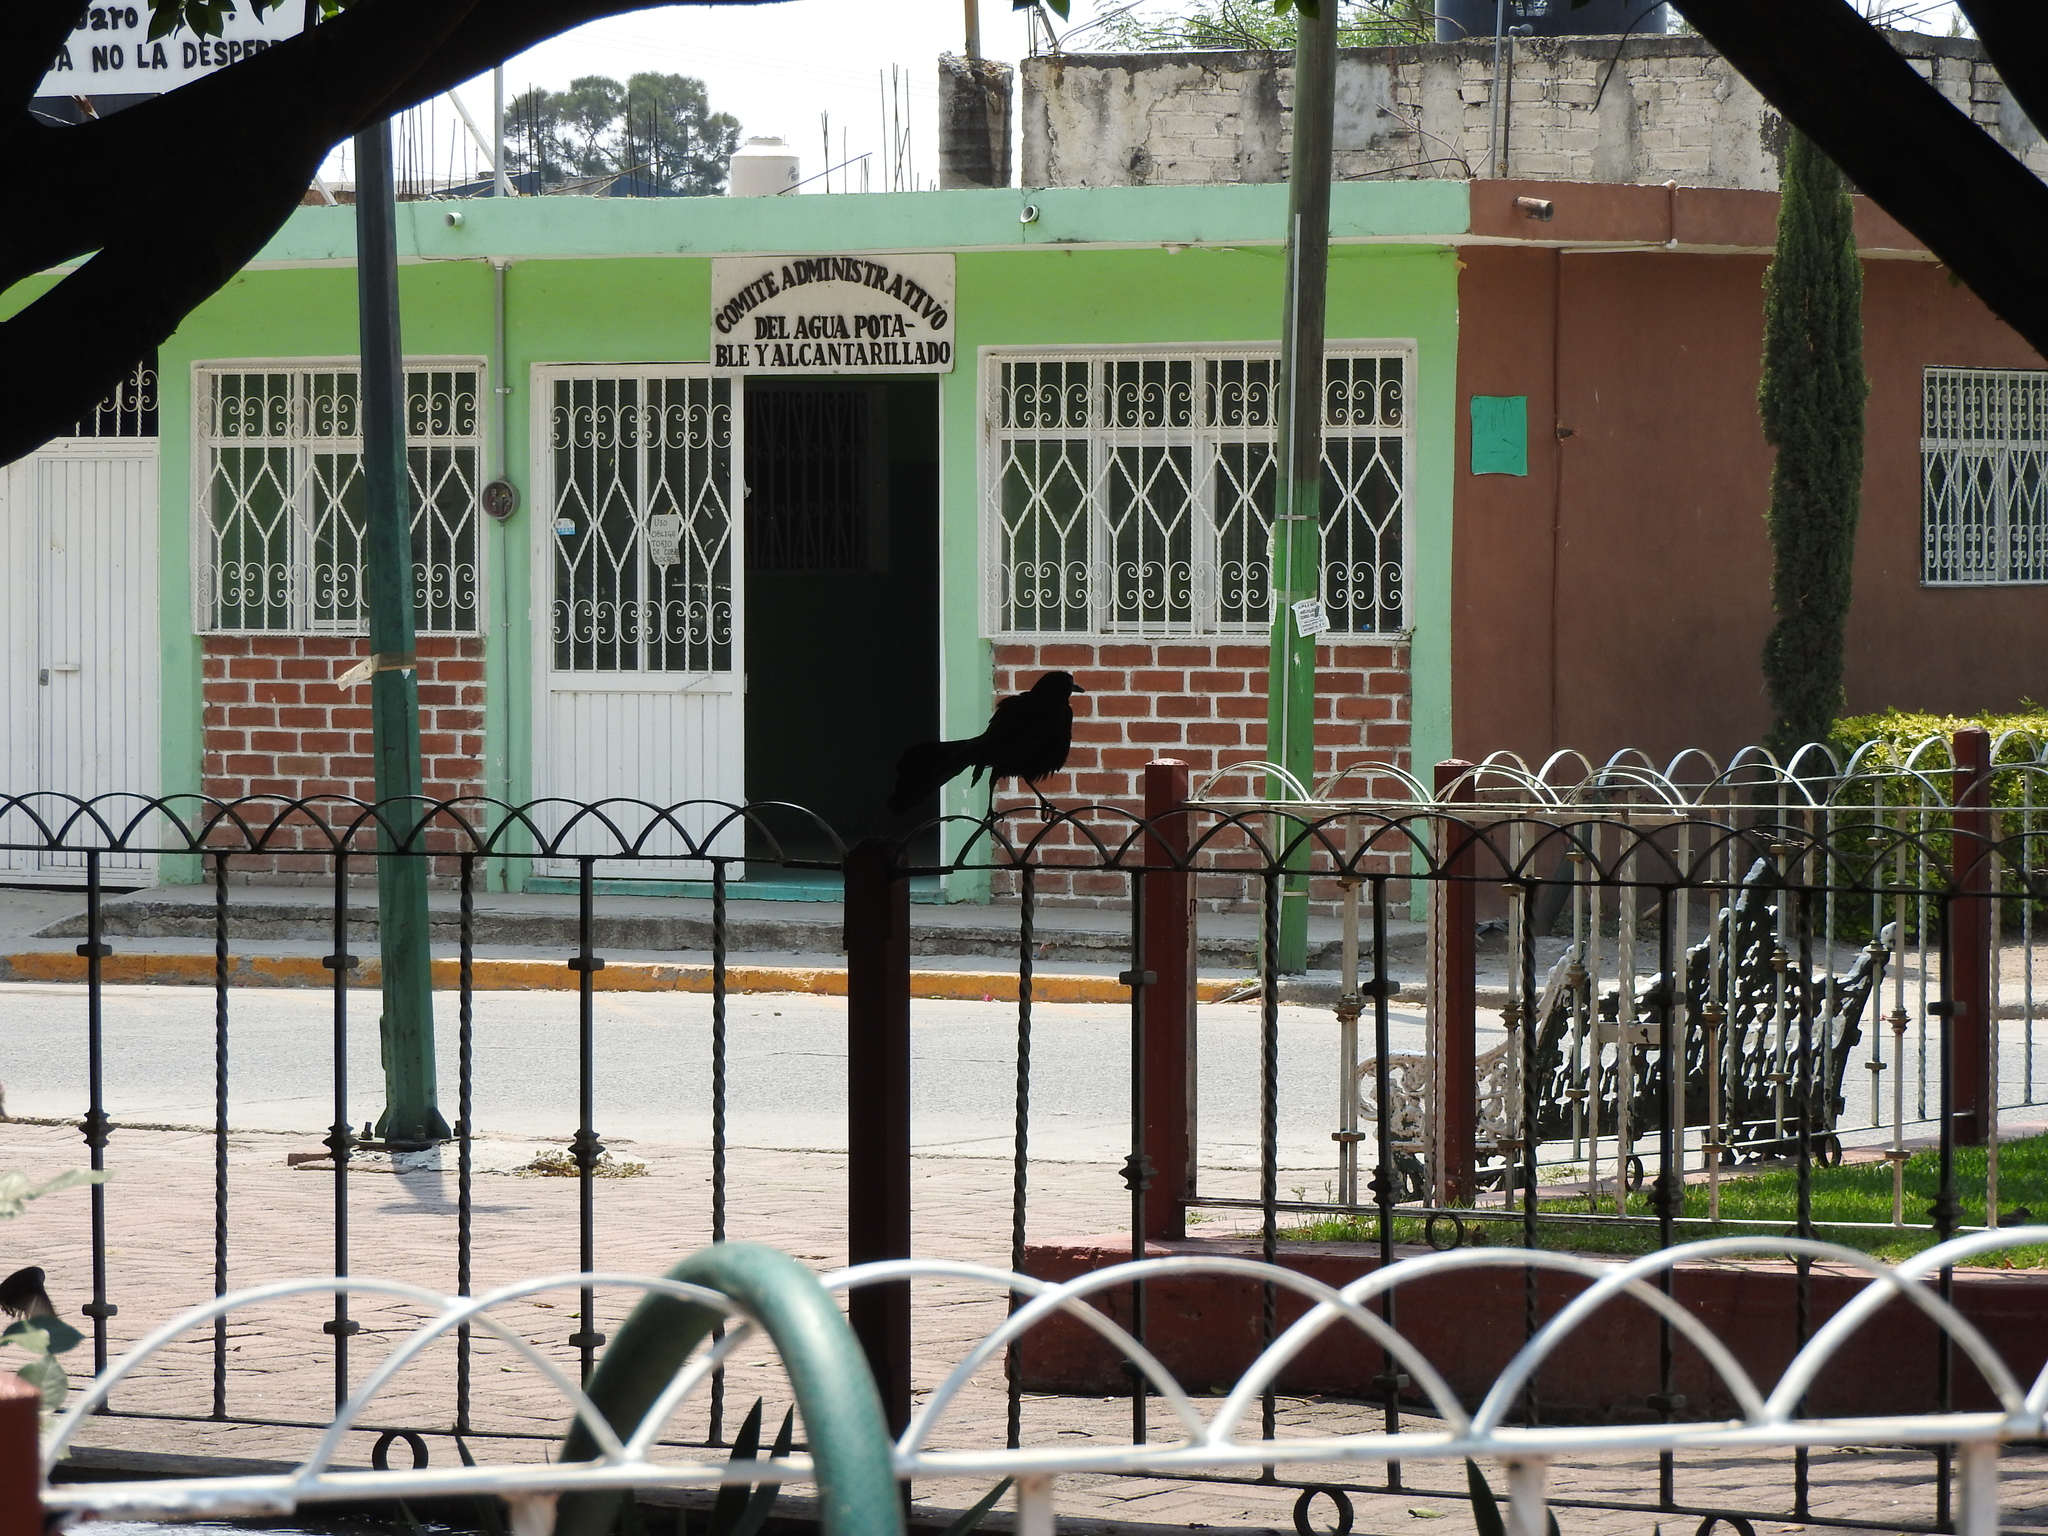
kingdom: Animalia
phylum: Chordata
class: Aves
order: Passeriformes
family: Icteridae
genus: Quiscalus
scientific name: Quiscalus mexicanus
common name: Great-tailed grackle
